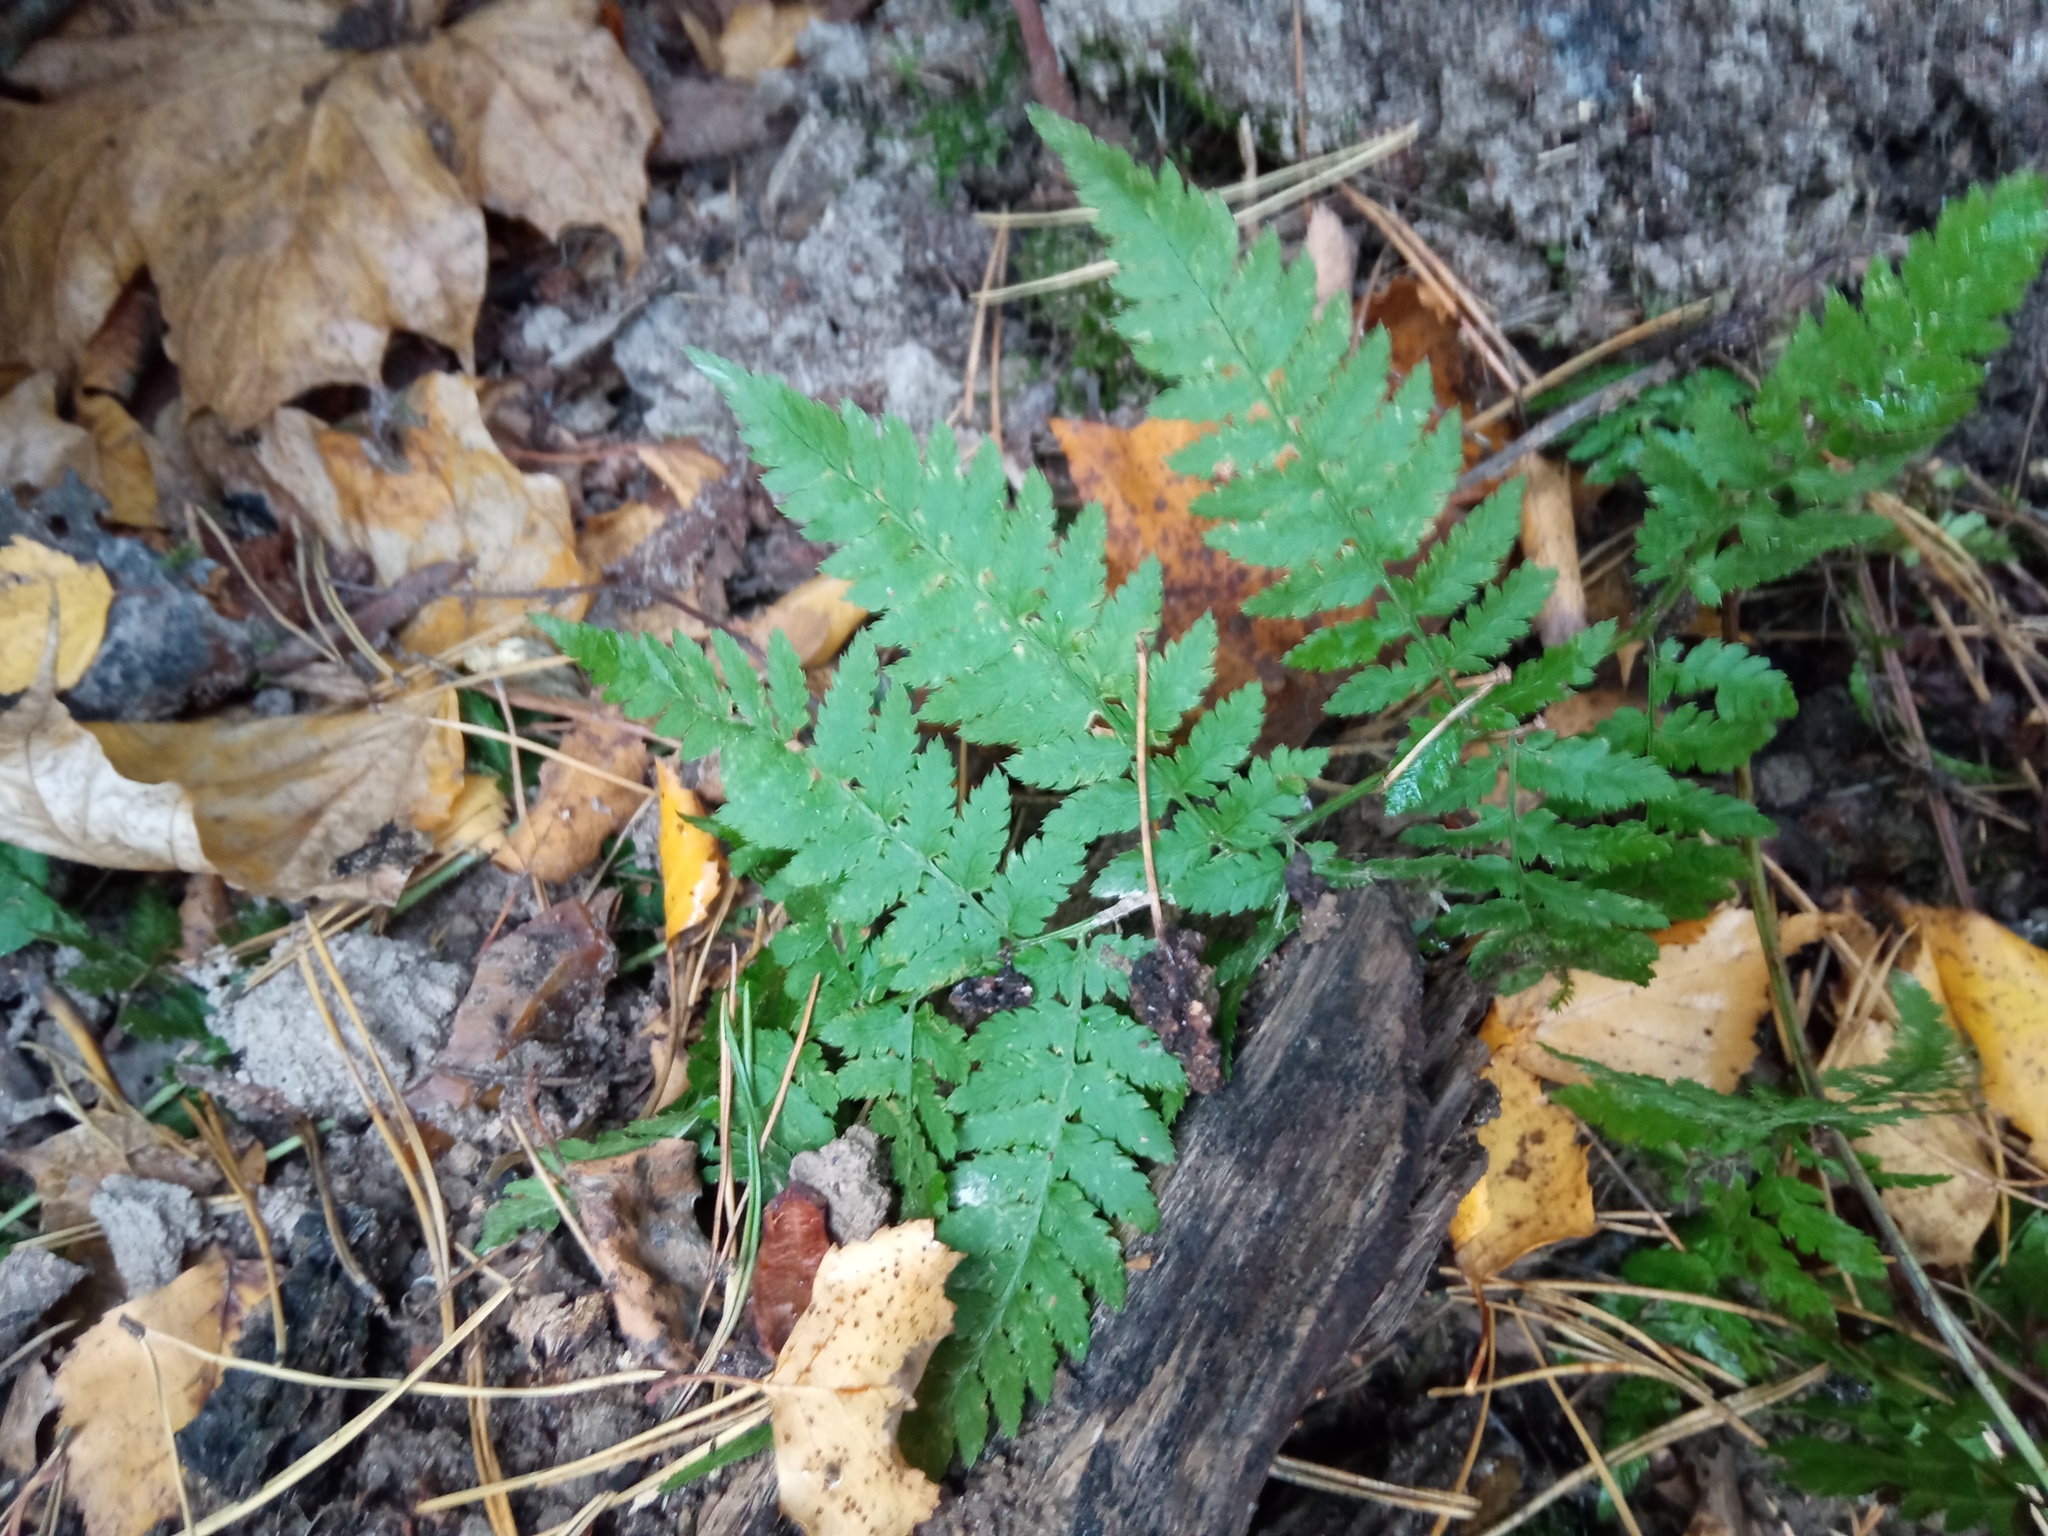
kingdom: Plantae
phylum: Tracheophyta
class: Polypodiopsida
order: Polypodiales
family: Dryopteridaceae
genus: Dryopteris
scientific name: Dryopteris carthusiana
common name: Narrow buckler-fern
